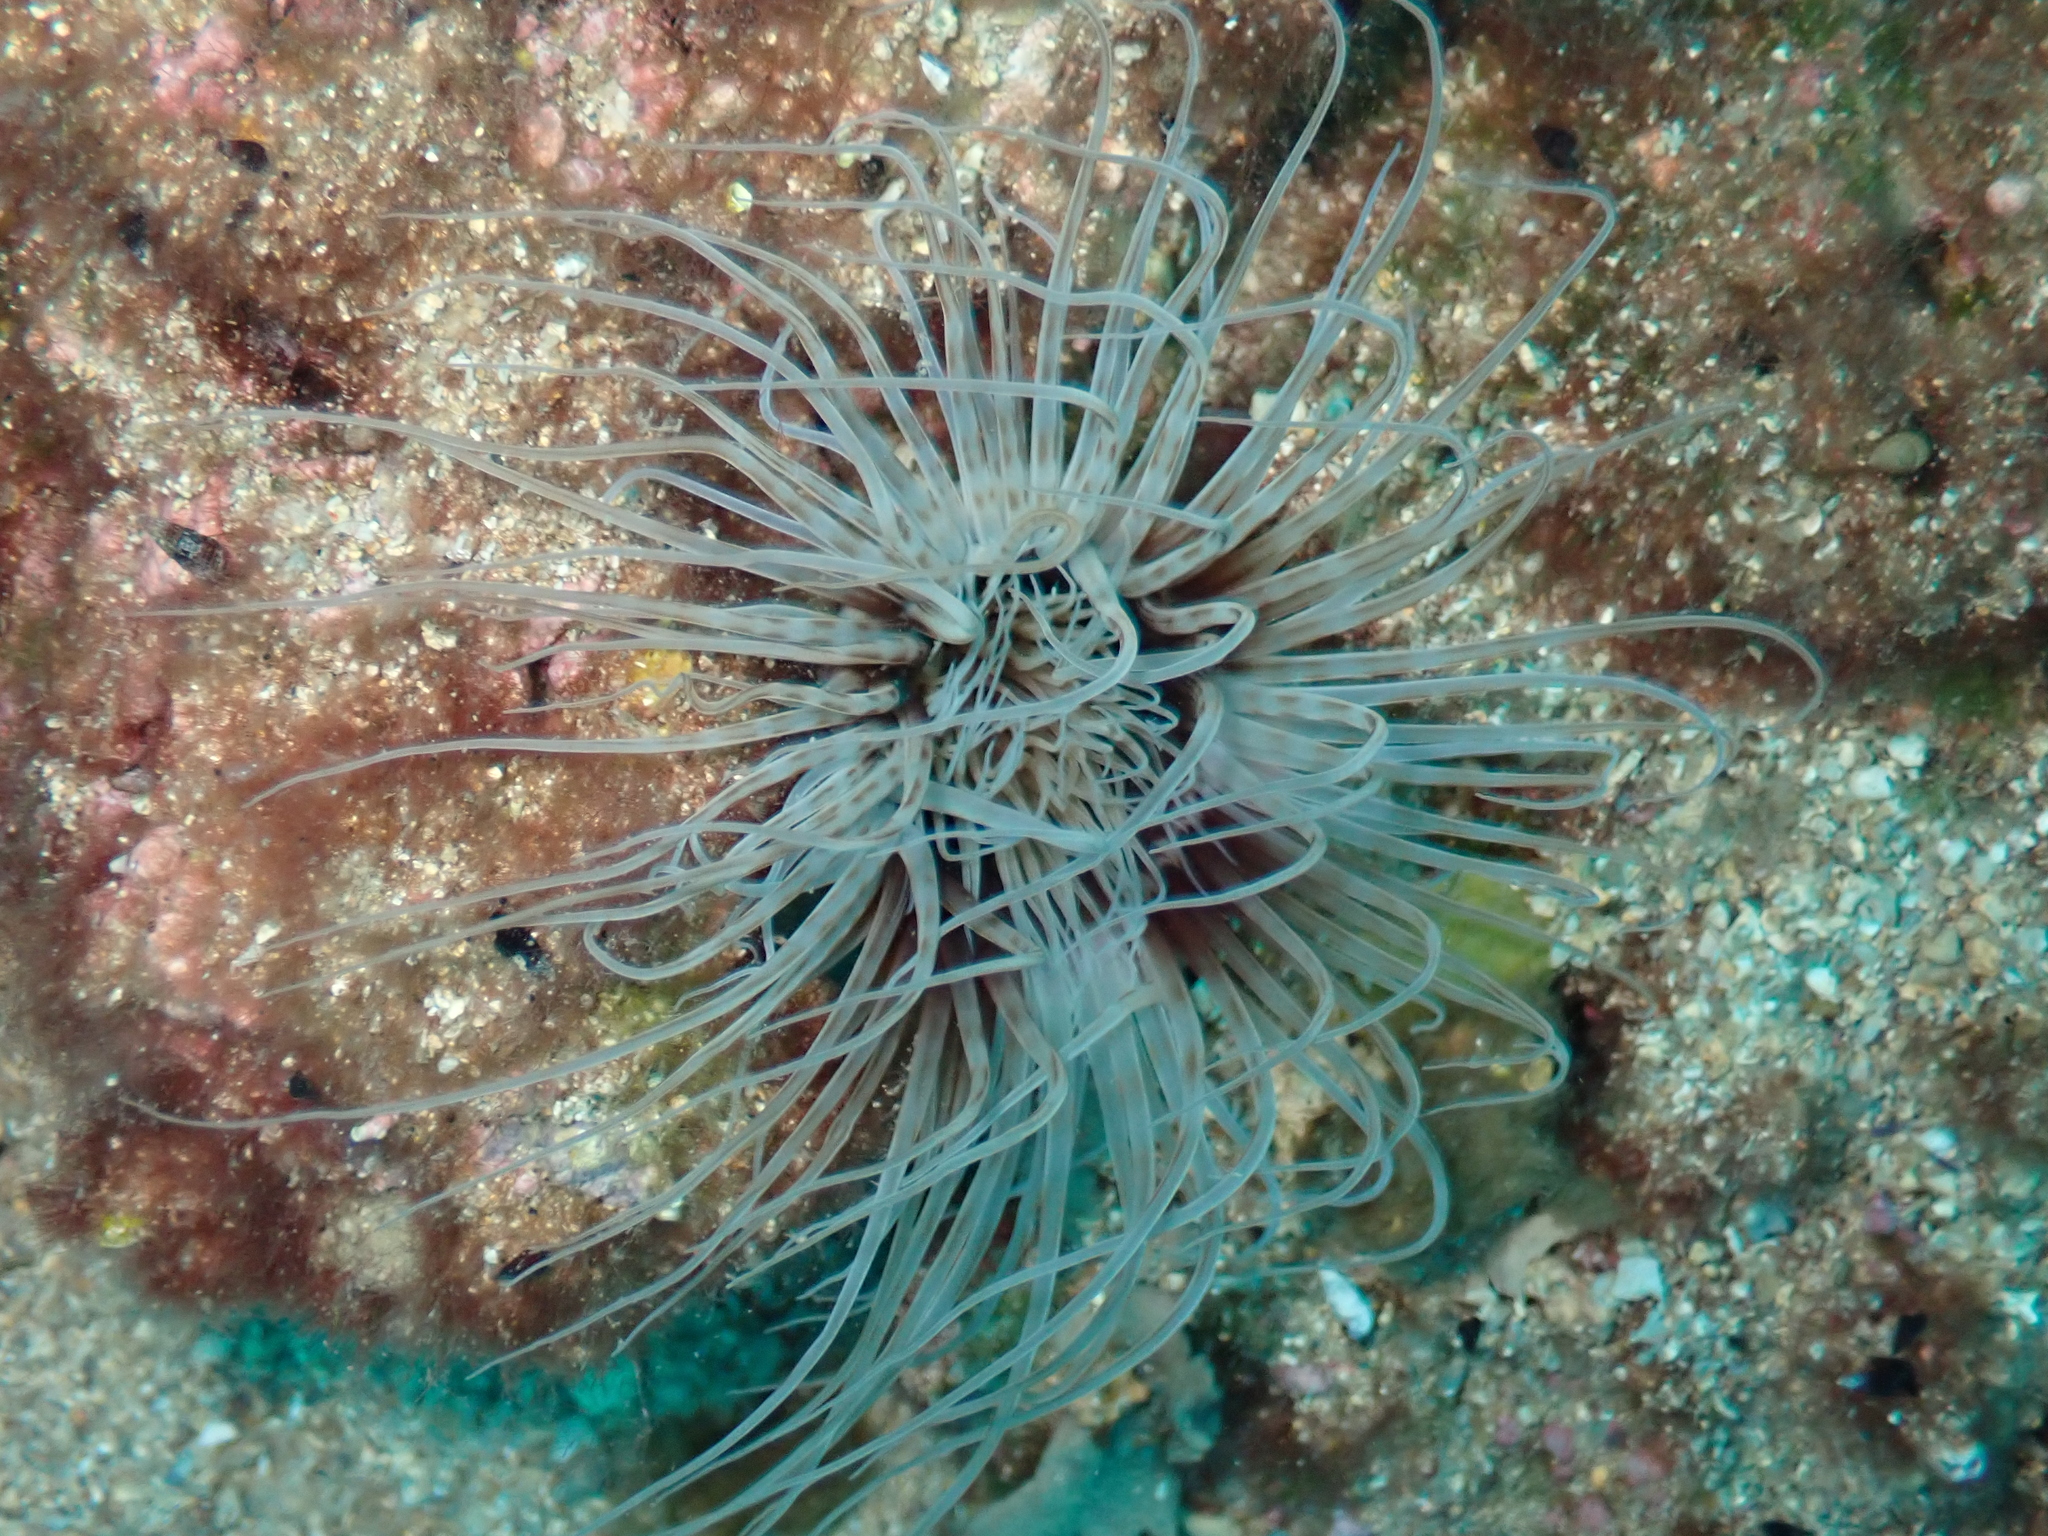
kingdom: Animalia
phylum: Cnidaria
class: Anthozoa
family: Cerianthidae
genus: Cerianthus
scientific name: Cerianthus membranaceus
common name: Cylinder anemone
